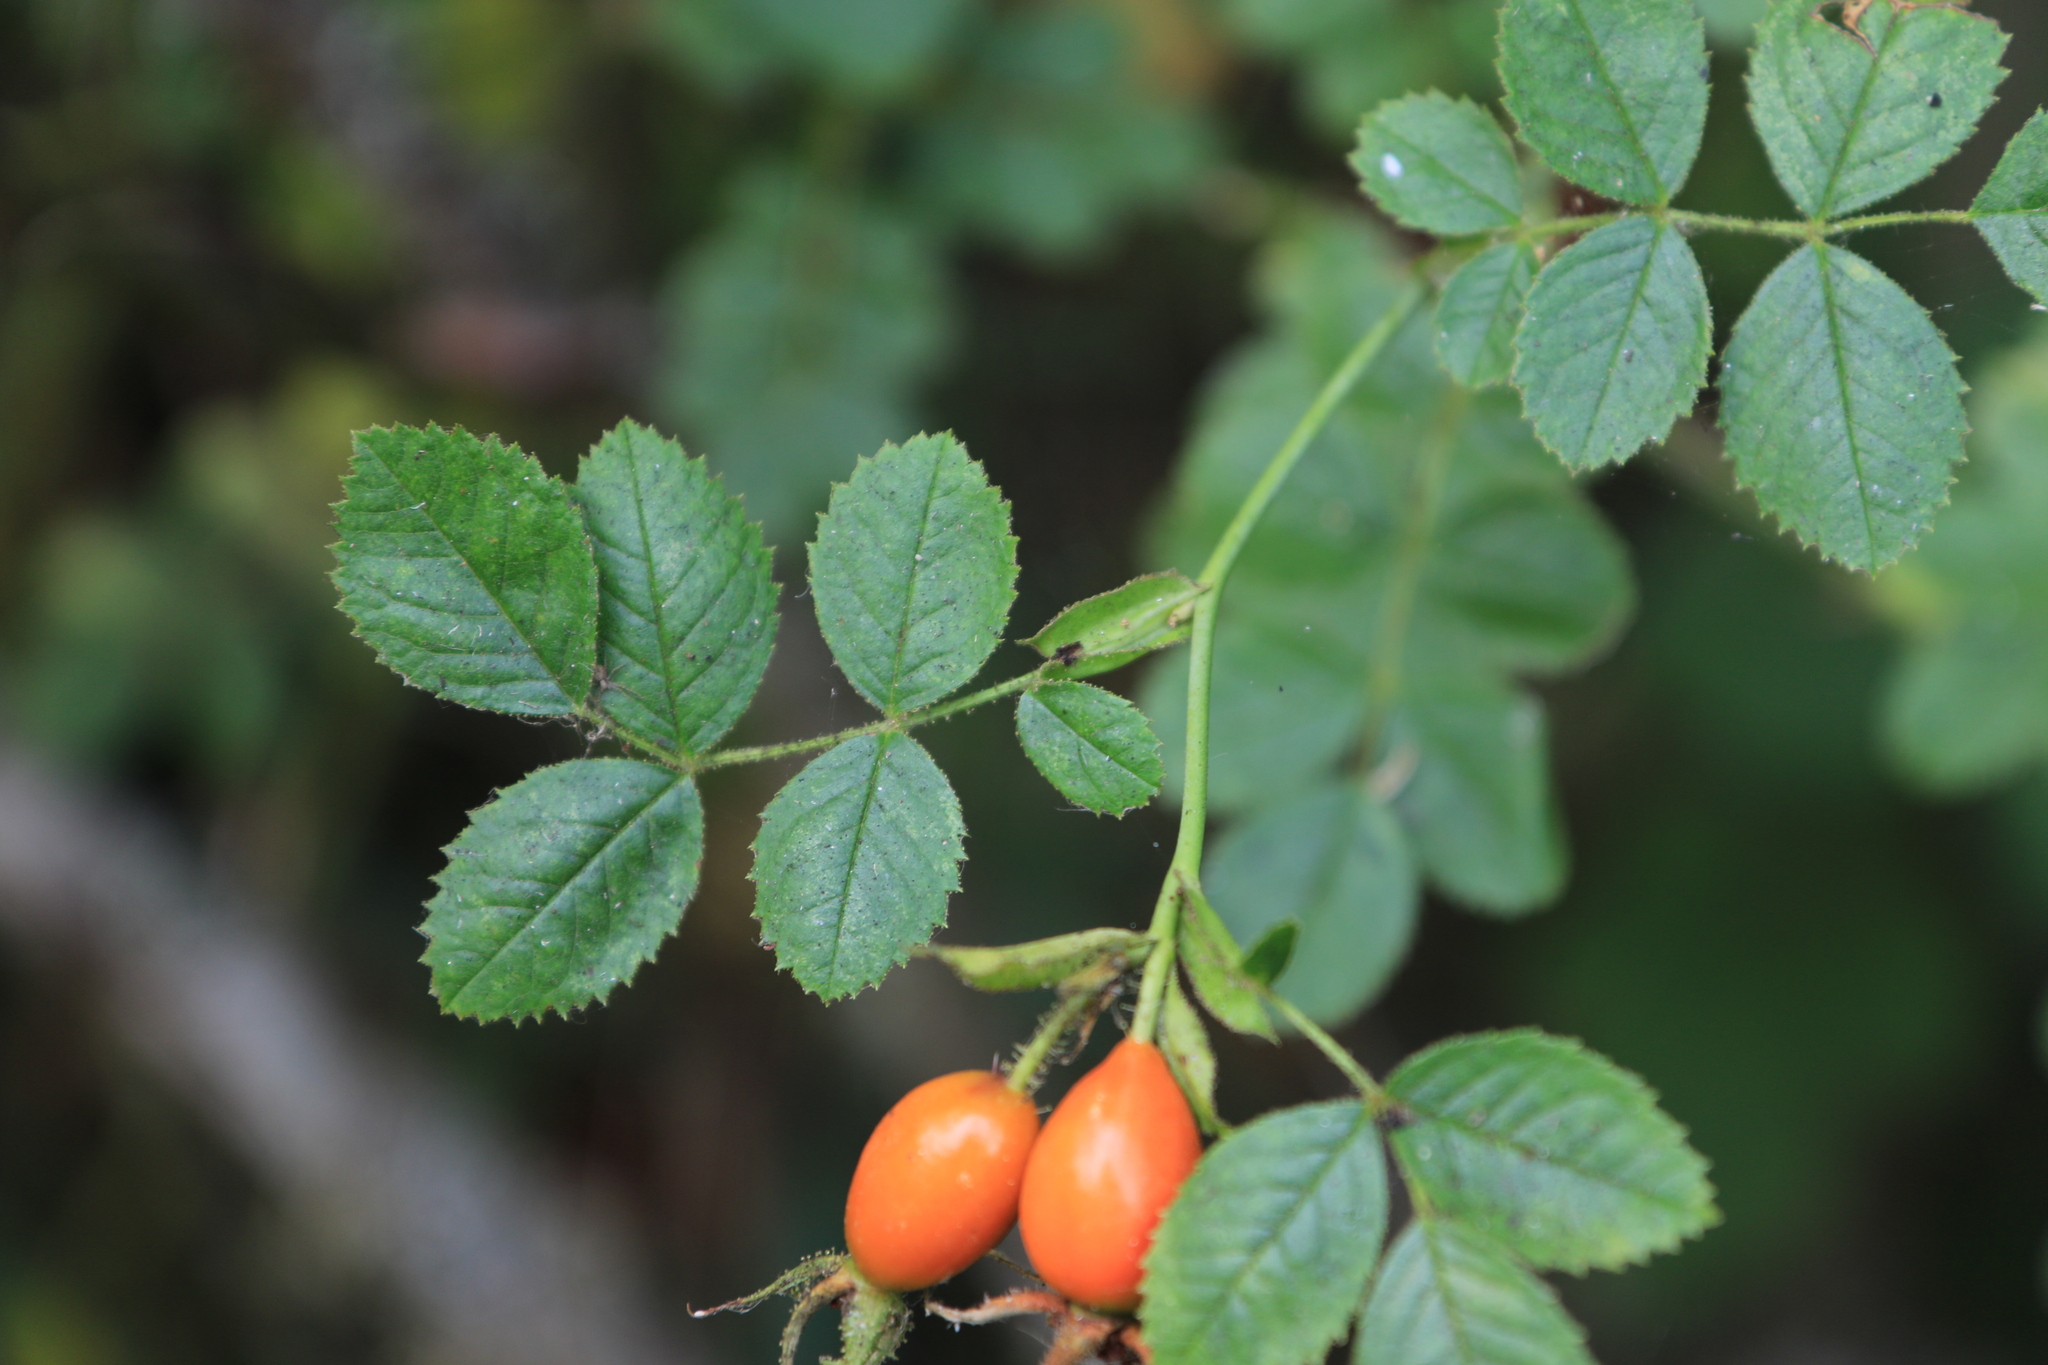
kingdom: Plantae
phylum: Tracheophyta
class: Magnoliopsida
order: Rosales
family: Rosaceae
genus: Rosa
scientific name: Rosa rubiginosa
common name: Sweet-briar
